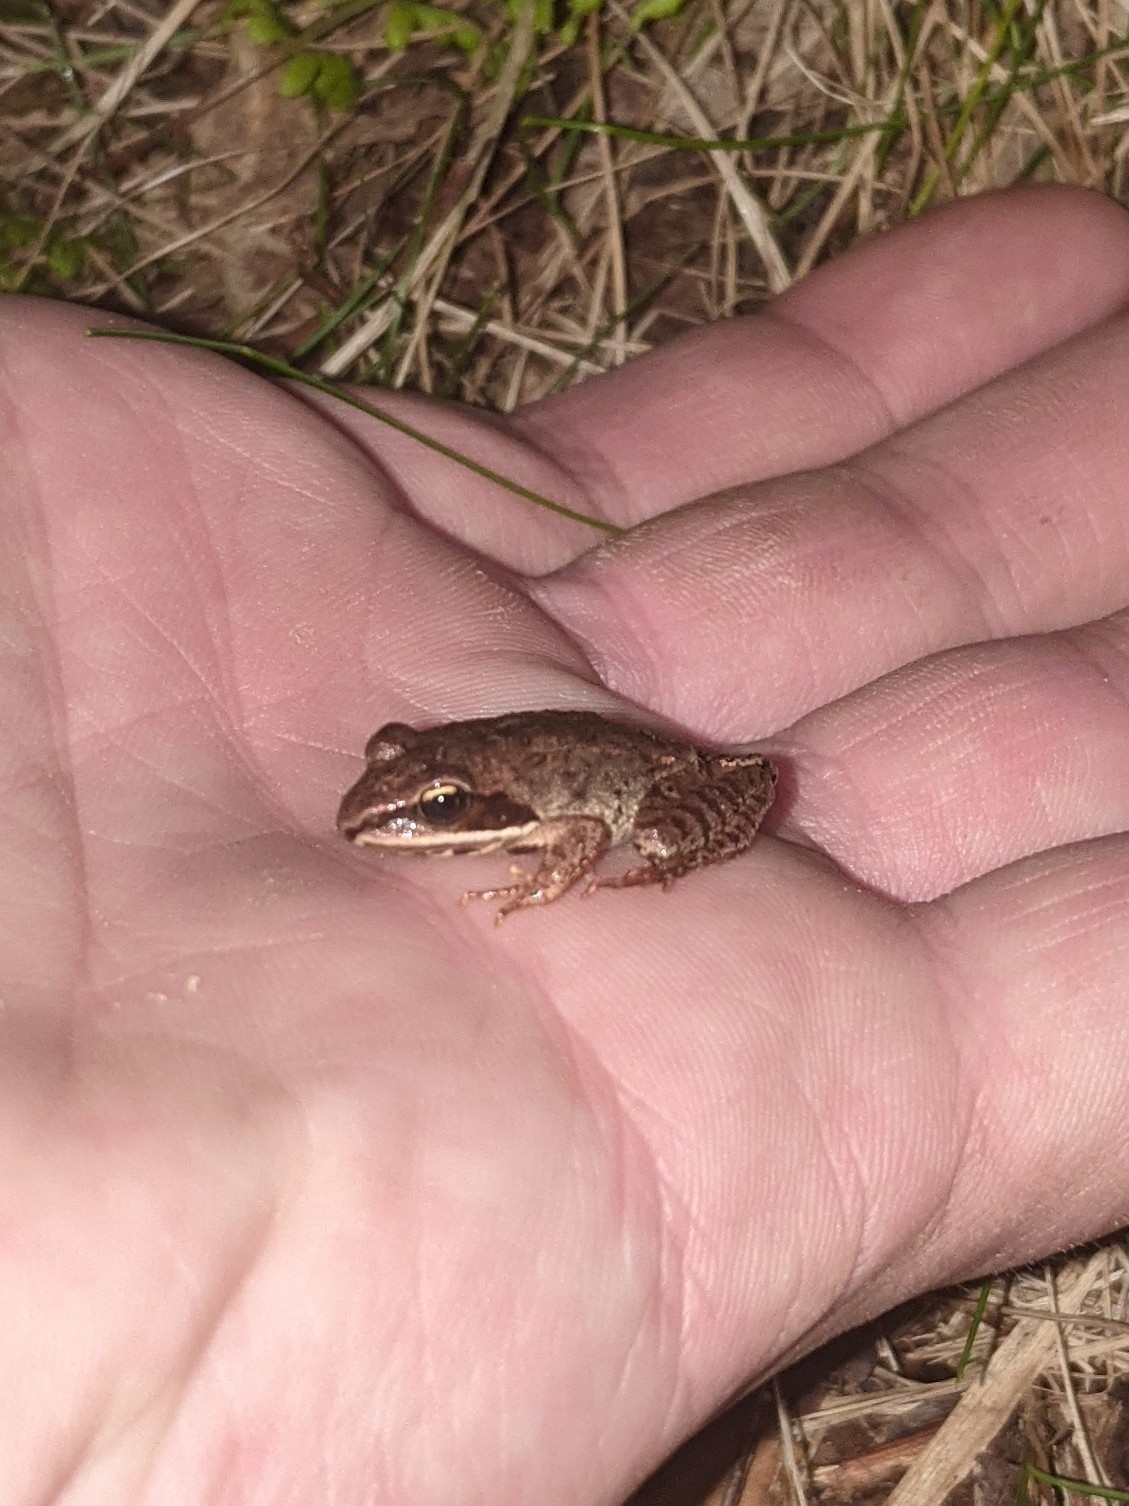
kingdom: Animalia
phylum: Chordata
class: Amphibia
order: Anura
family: Ranidae
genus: Lithobates
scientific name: Lithobates sylvaticus
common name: Wood frog
